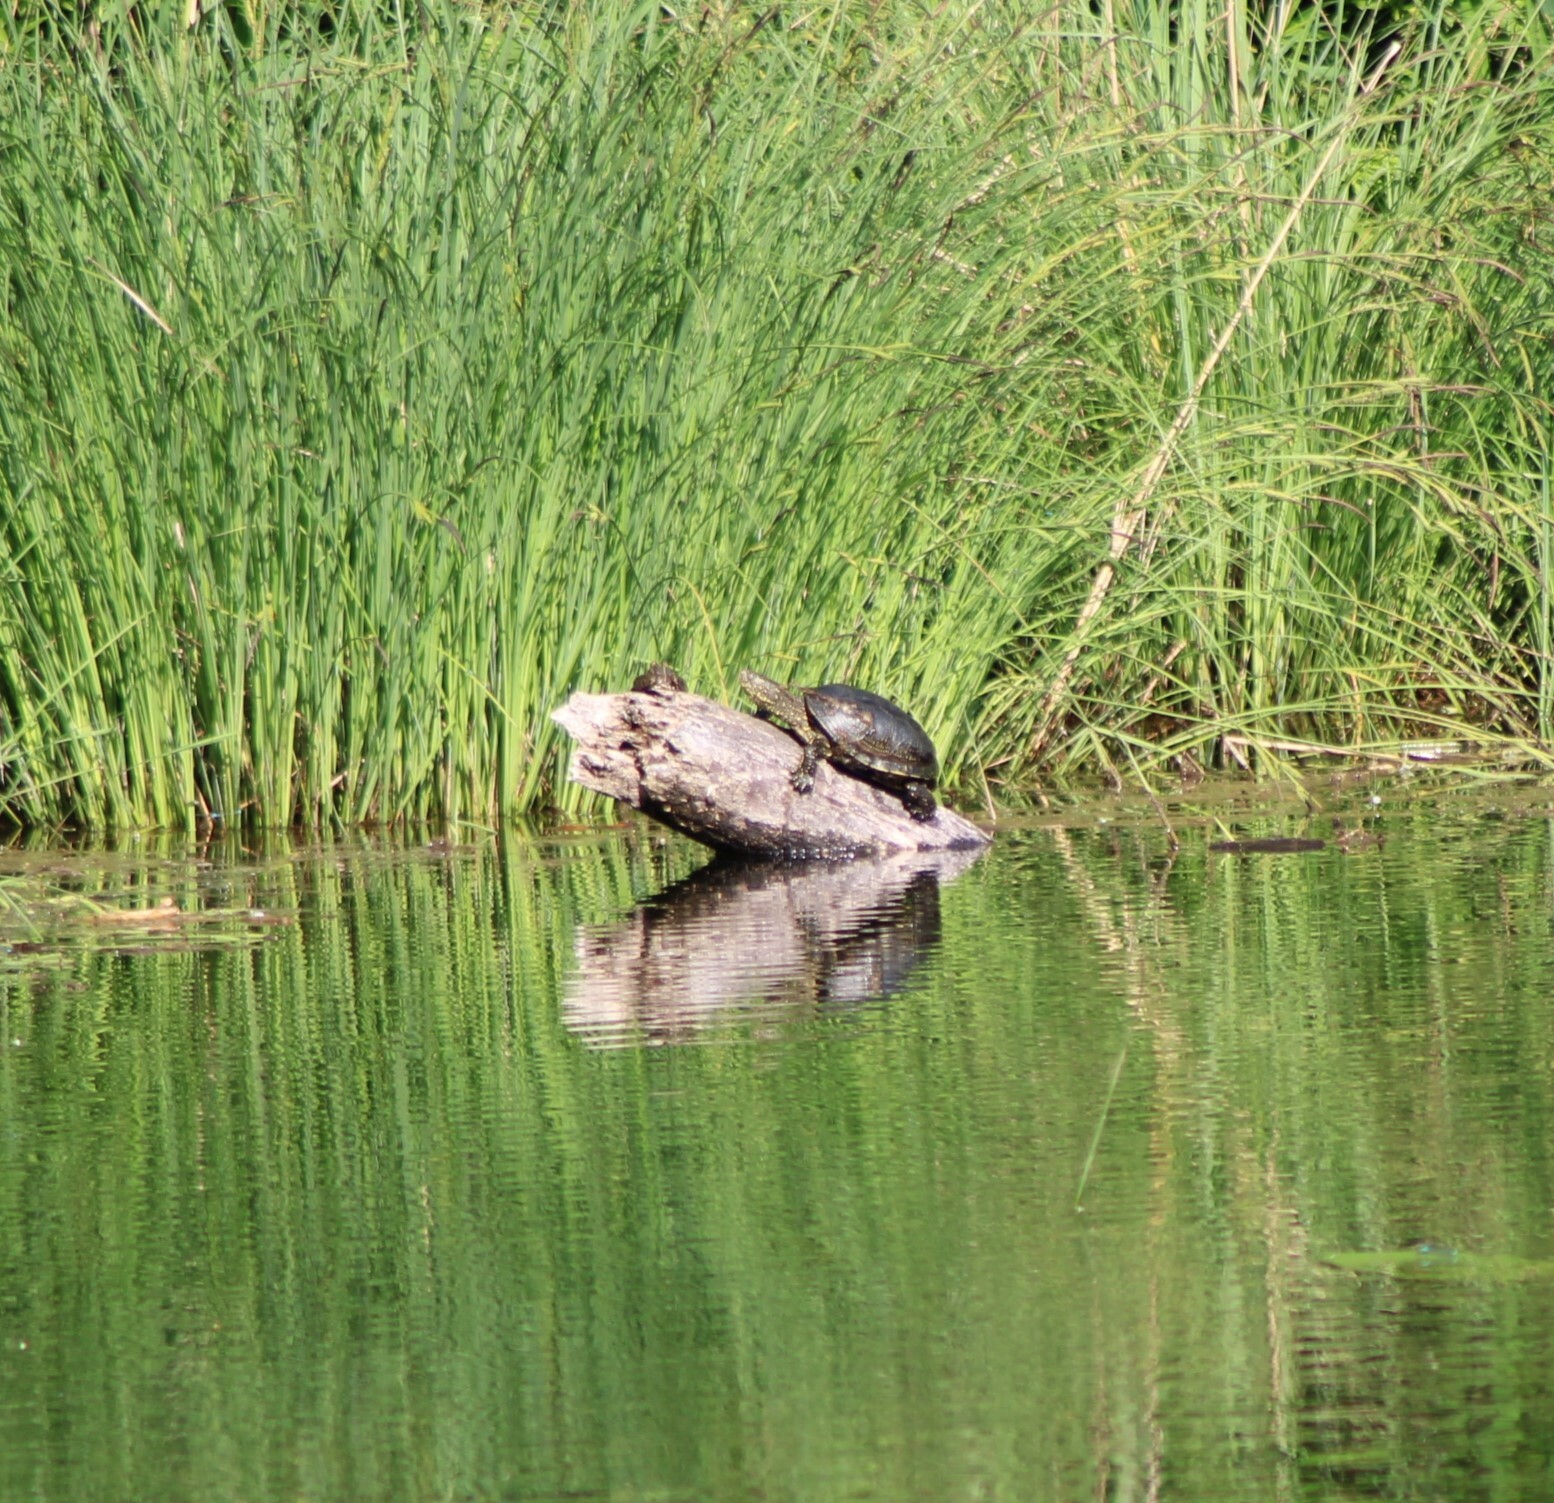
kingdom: Animalia
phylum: Chordata
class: Testudines
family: Emydidae
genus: Emys
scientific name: Emys orbicularis
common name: European pond turtle
